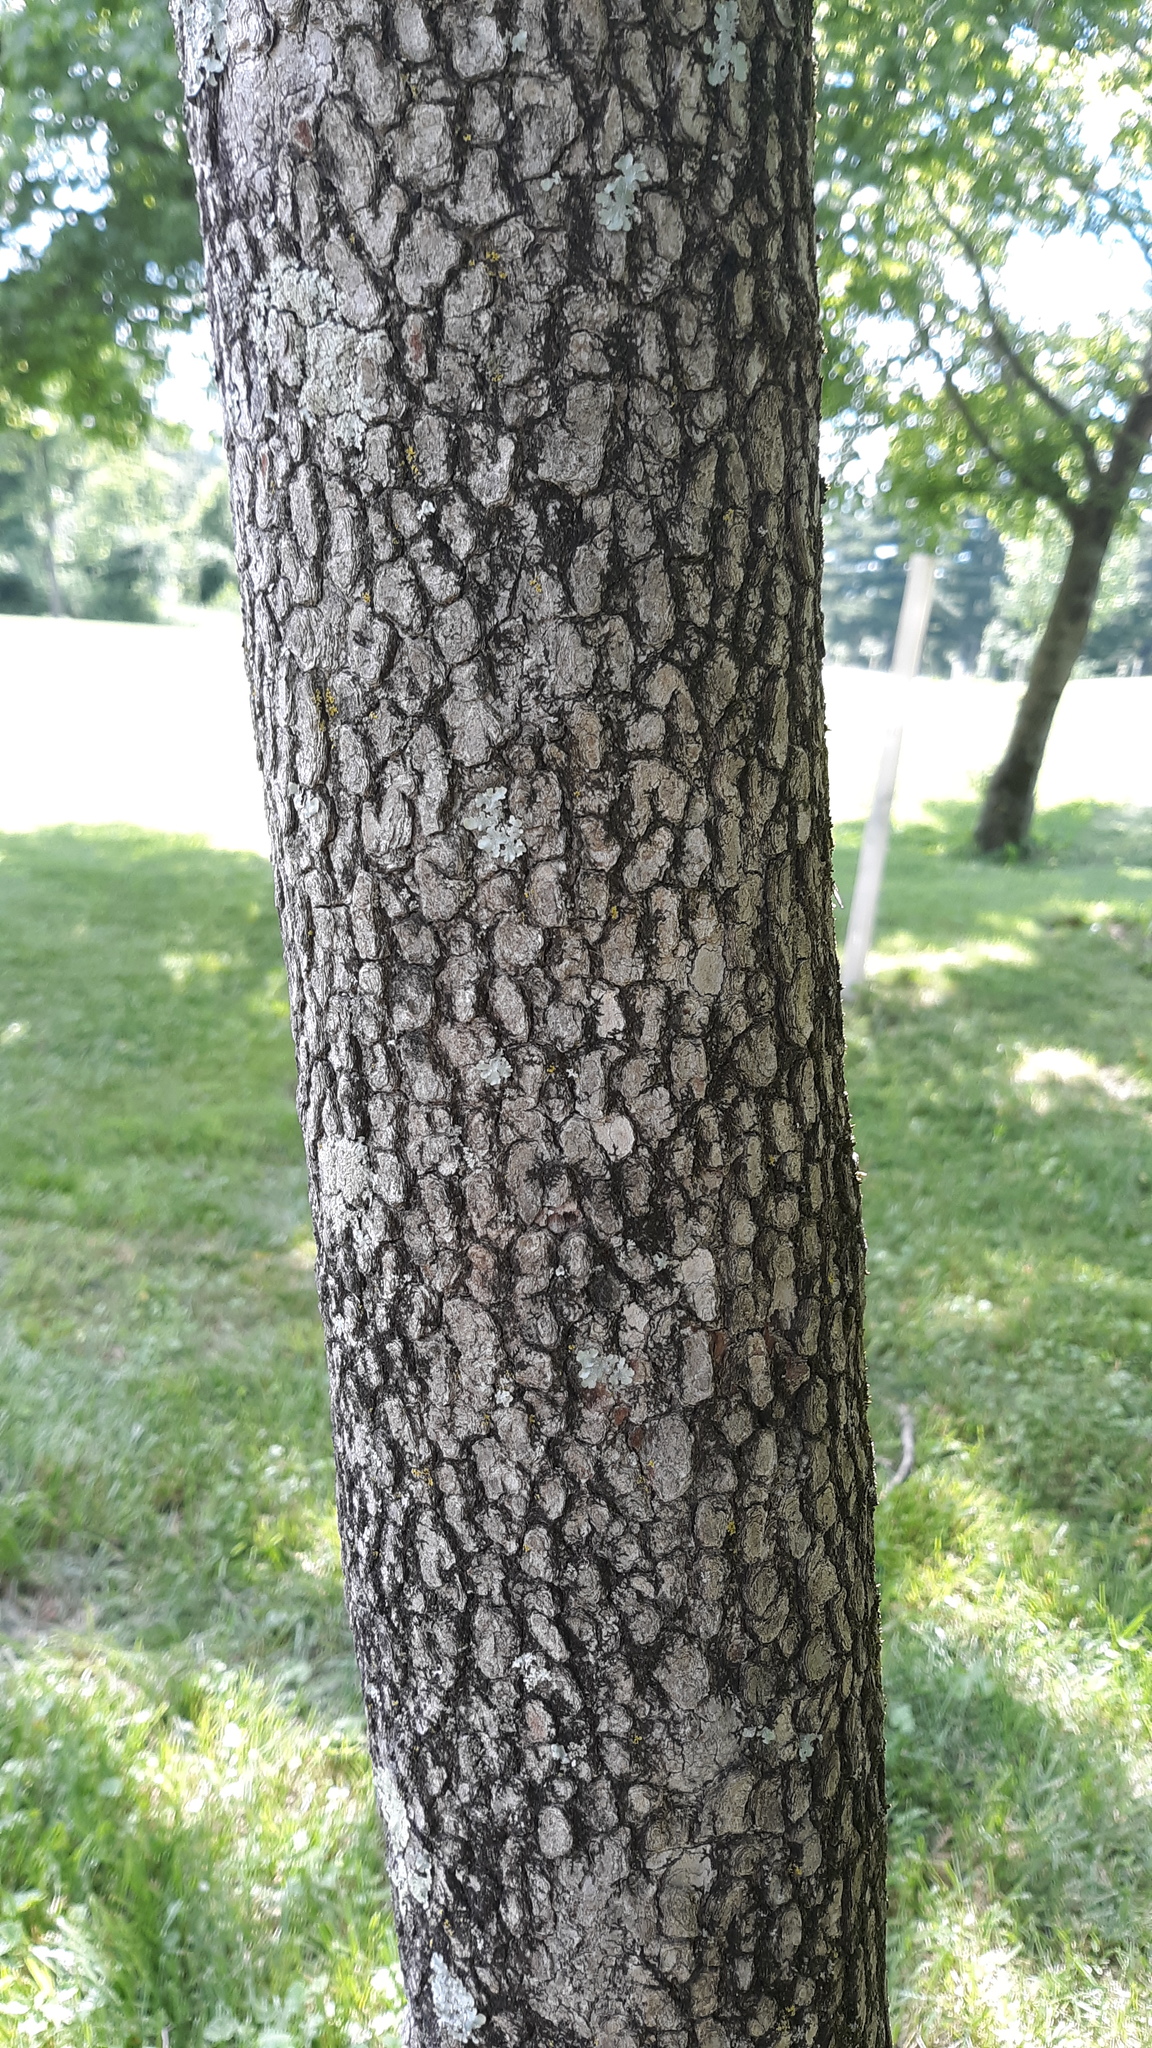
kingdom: Plantae
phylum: Tracheophyta
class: Magnoliopsida
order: Cornales
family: Cornaceae
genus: Cornus
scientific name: Cornus florida
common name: Flowering dogwood
